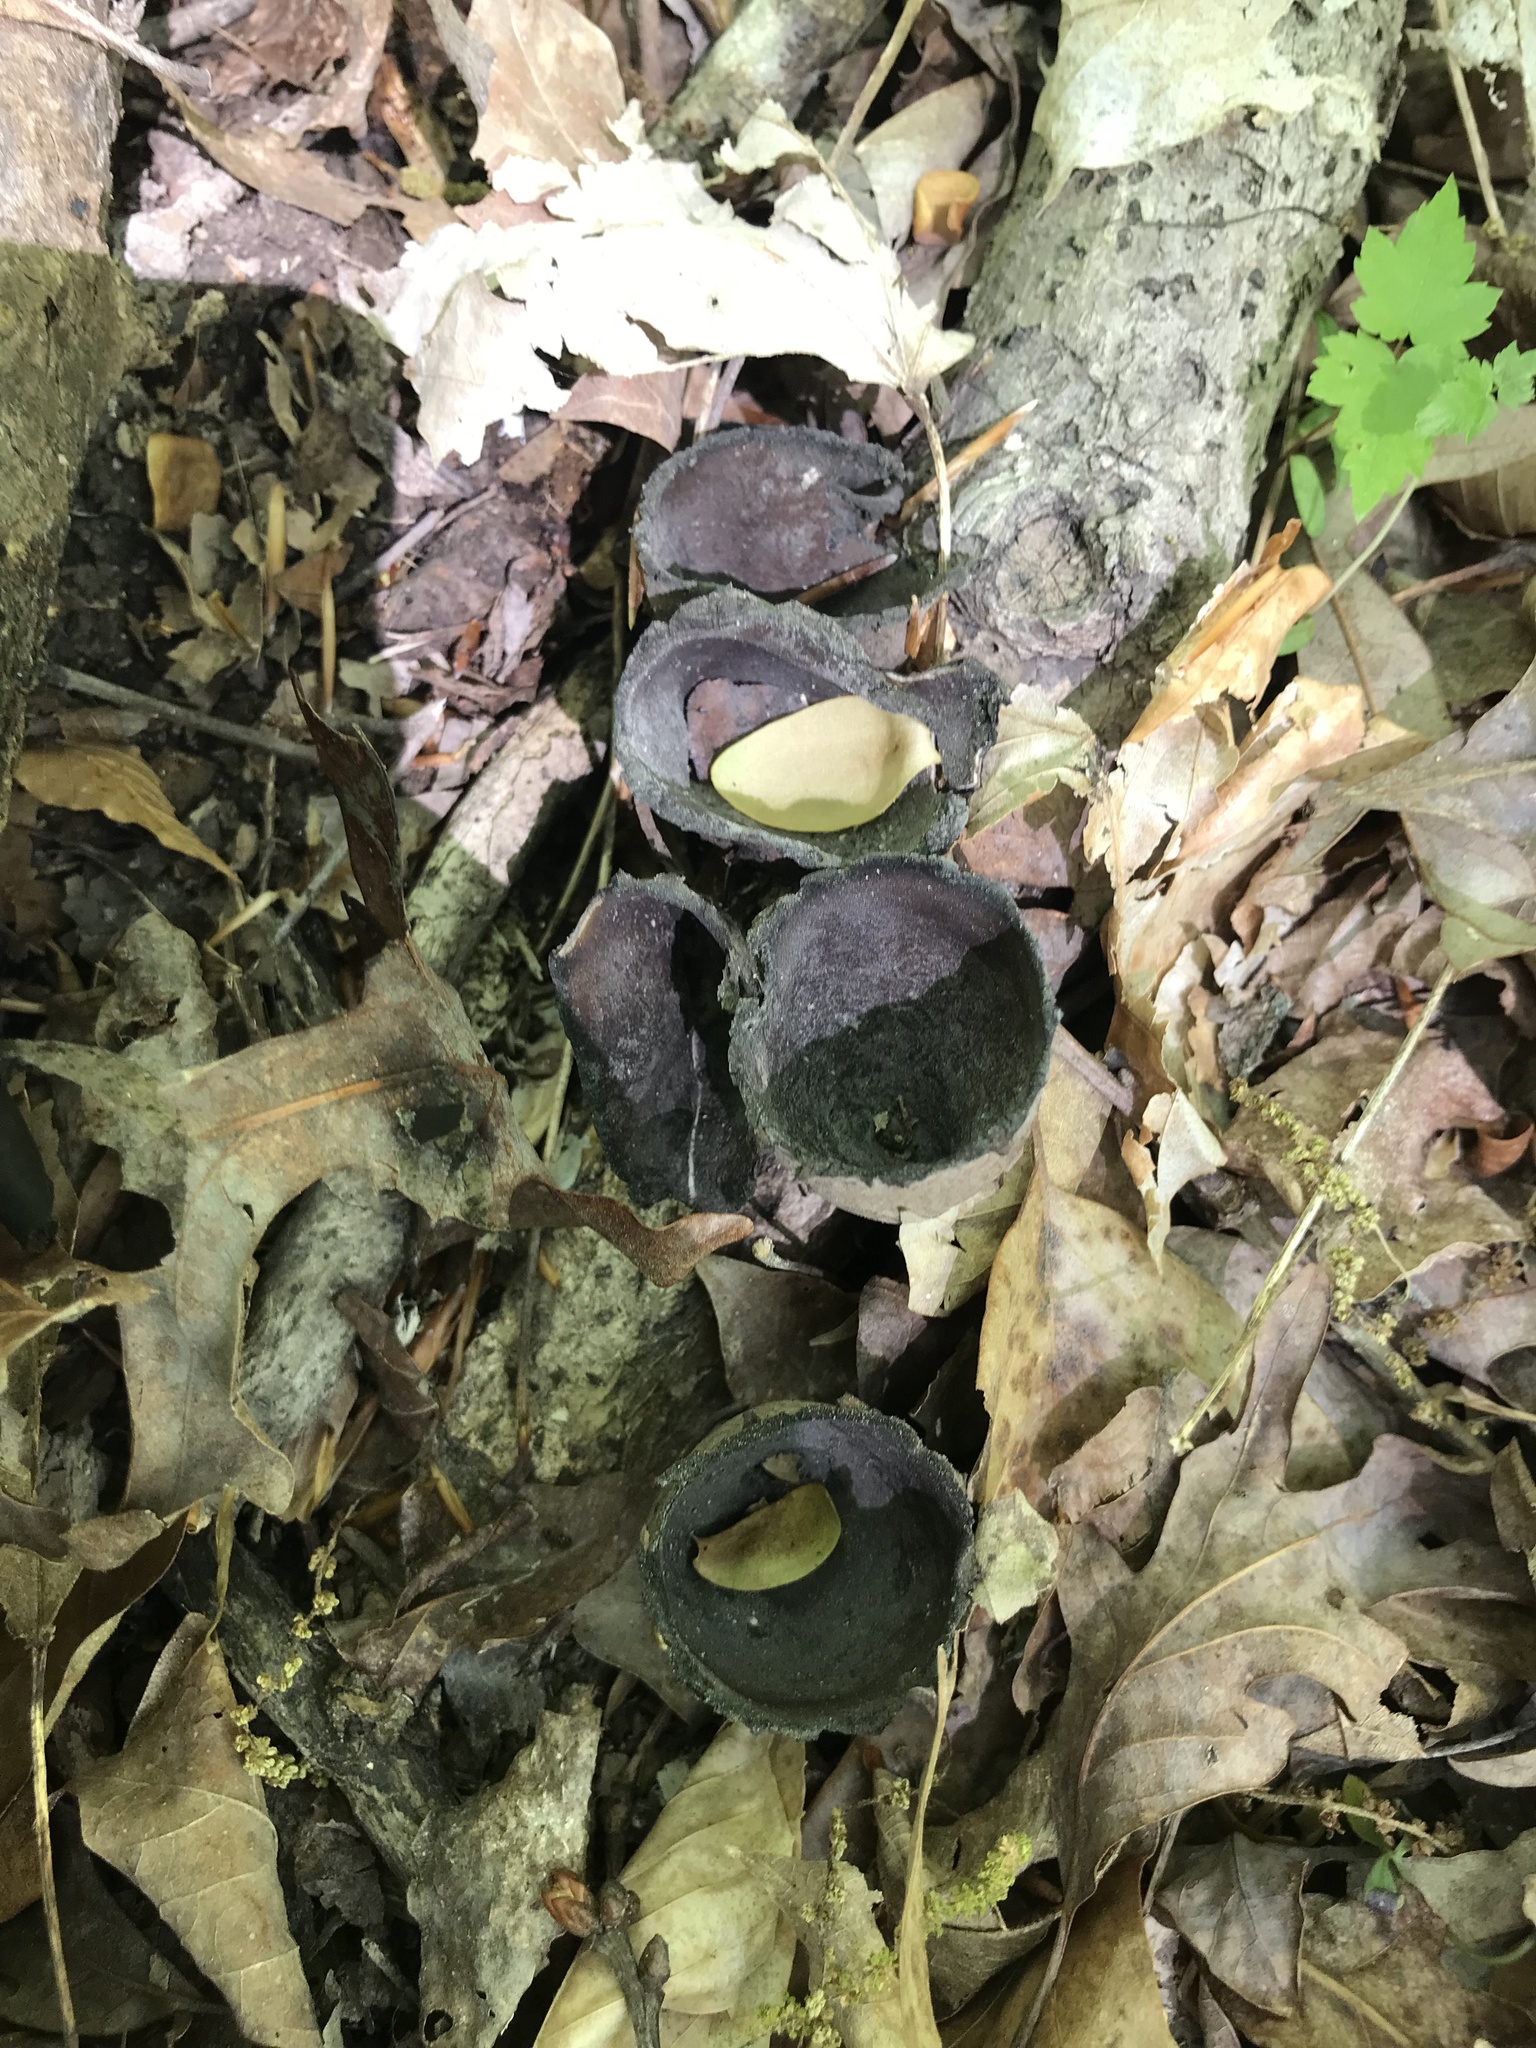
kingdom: Fungi
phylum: Ascomycota
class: Pezizomycetes
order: Pezizales
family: Sarcosomataceae
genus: Urnula
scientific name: Urnula craterium
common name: Devil's urn
